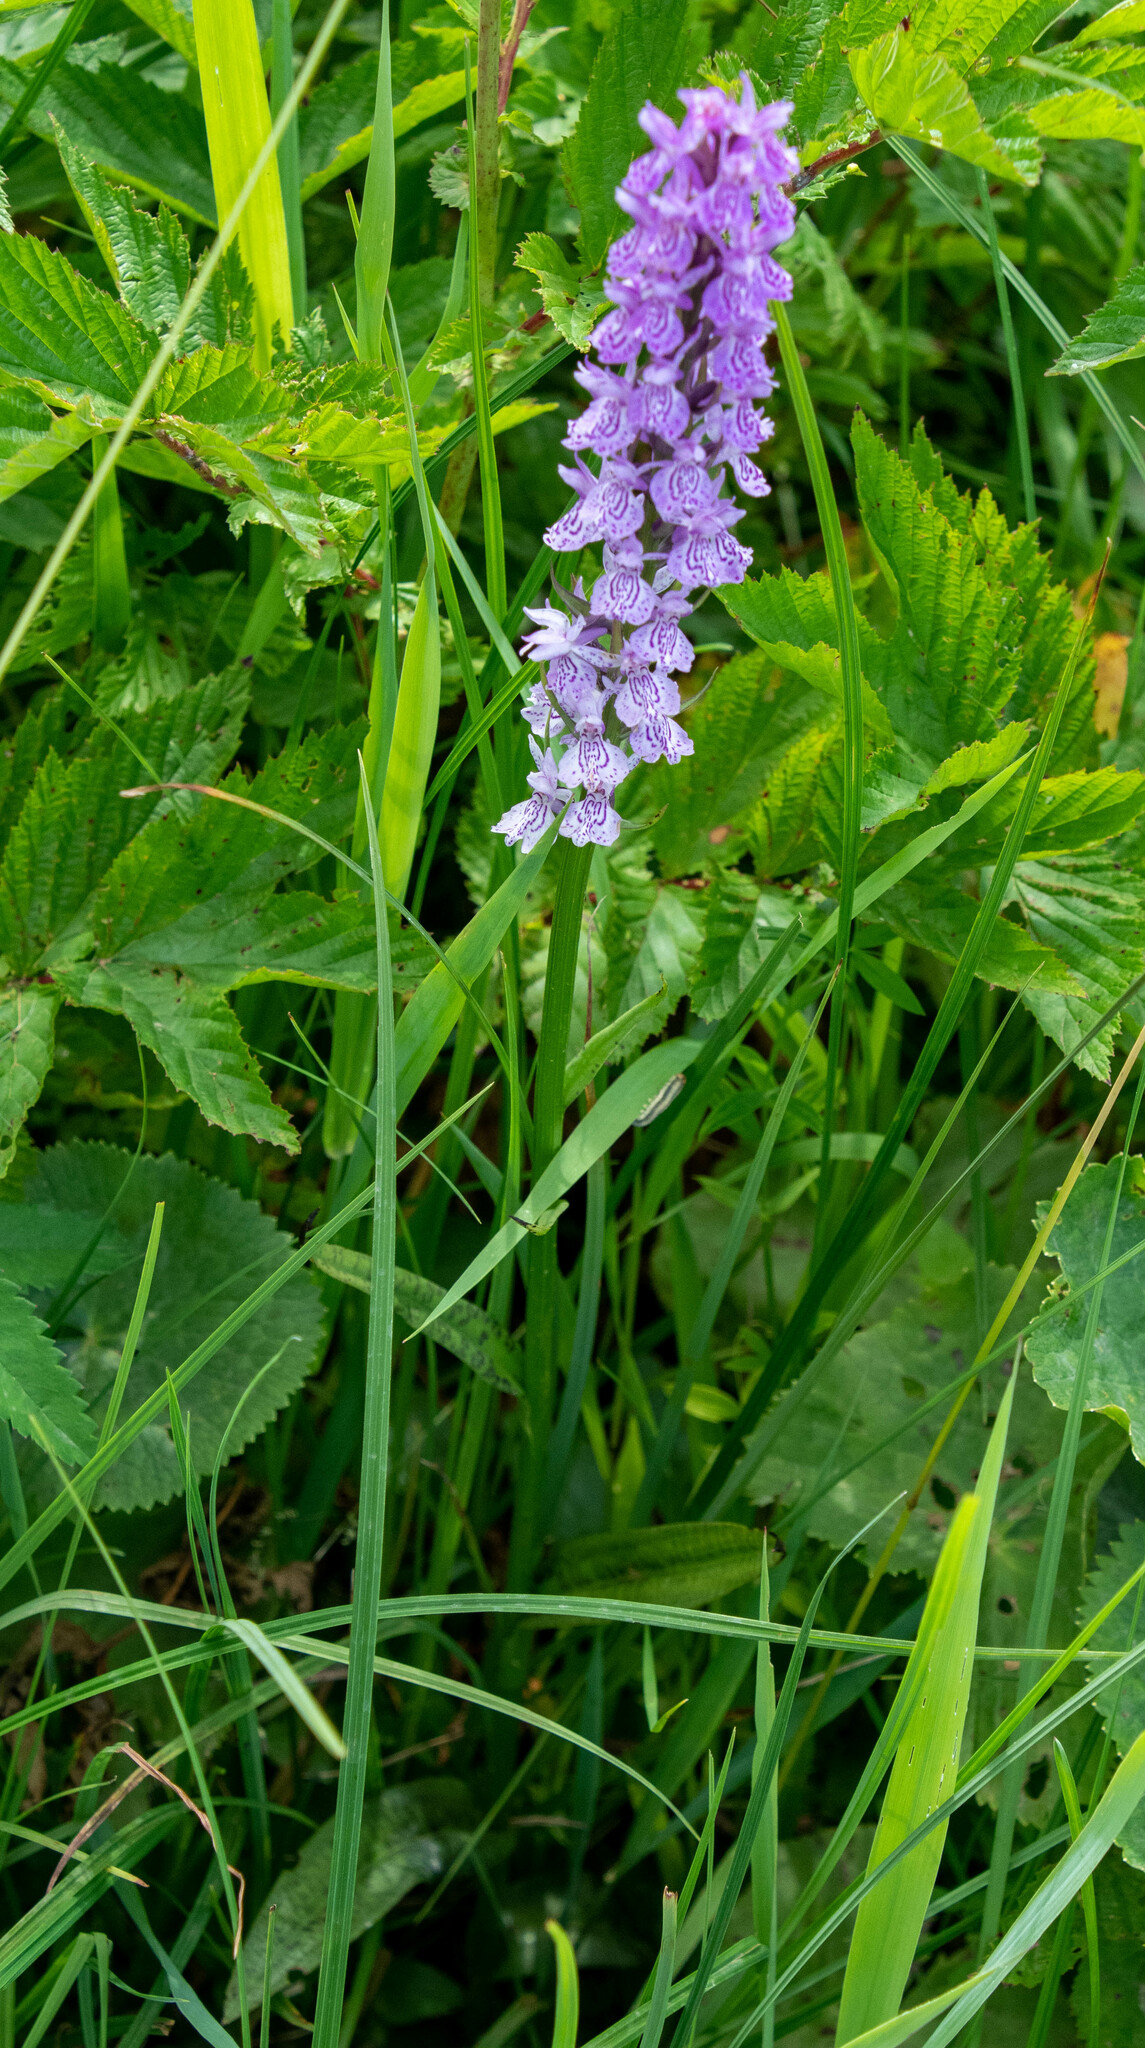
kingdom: Plantae
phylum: Tracheophyta
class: Liliopsida
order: Asparagales
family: Orchidaceae
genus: Dactylorhiza
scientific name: Dactylorhiza maculata
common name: Heath spotted-orchid
